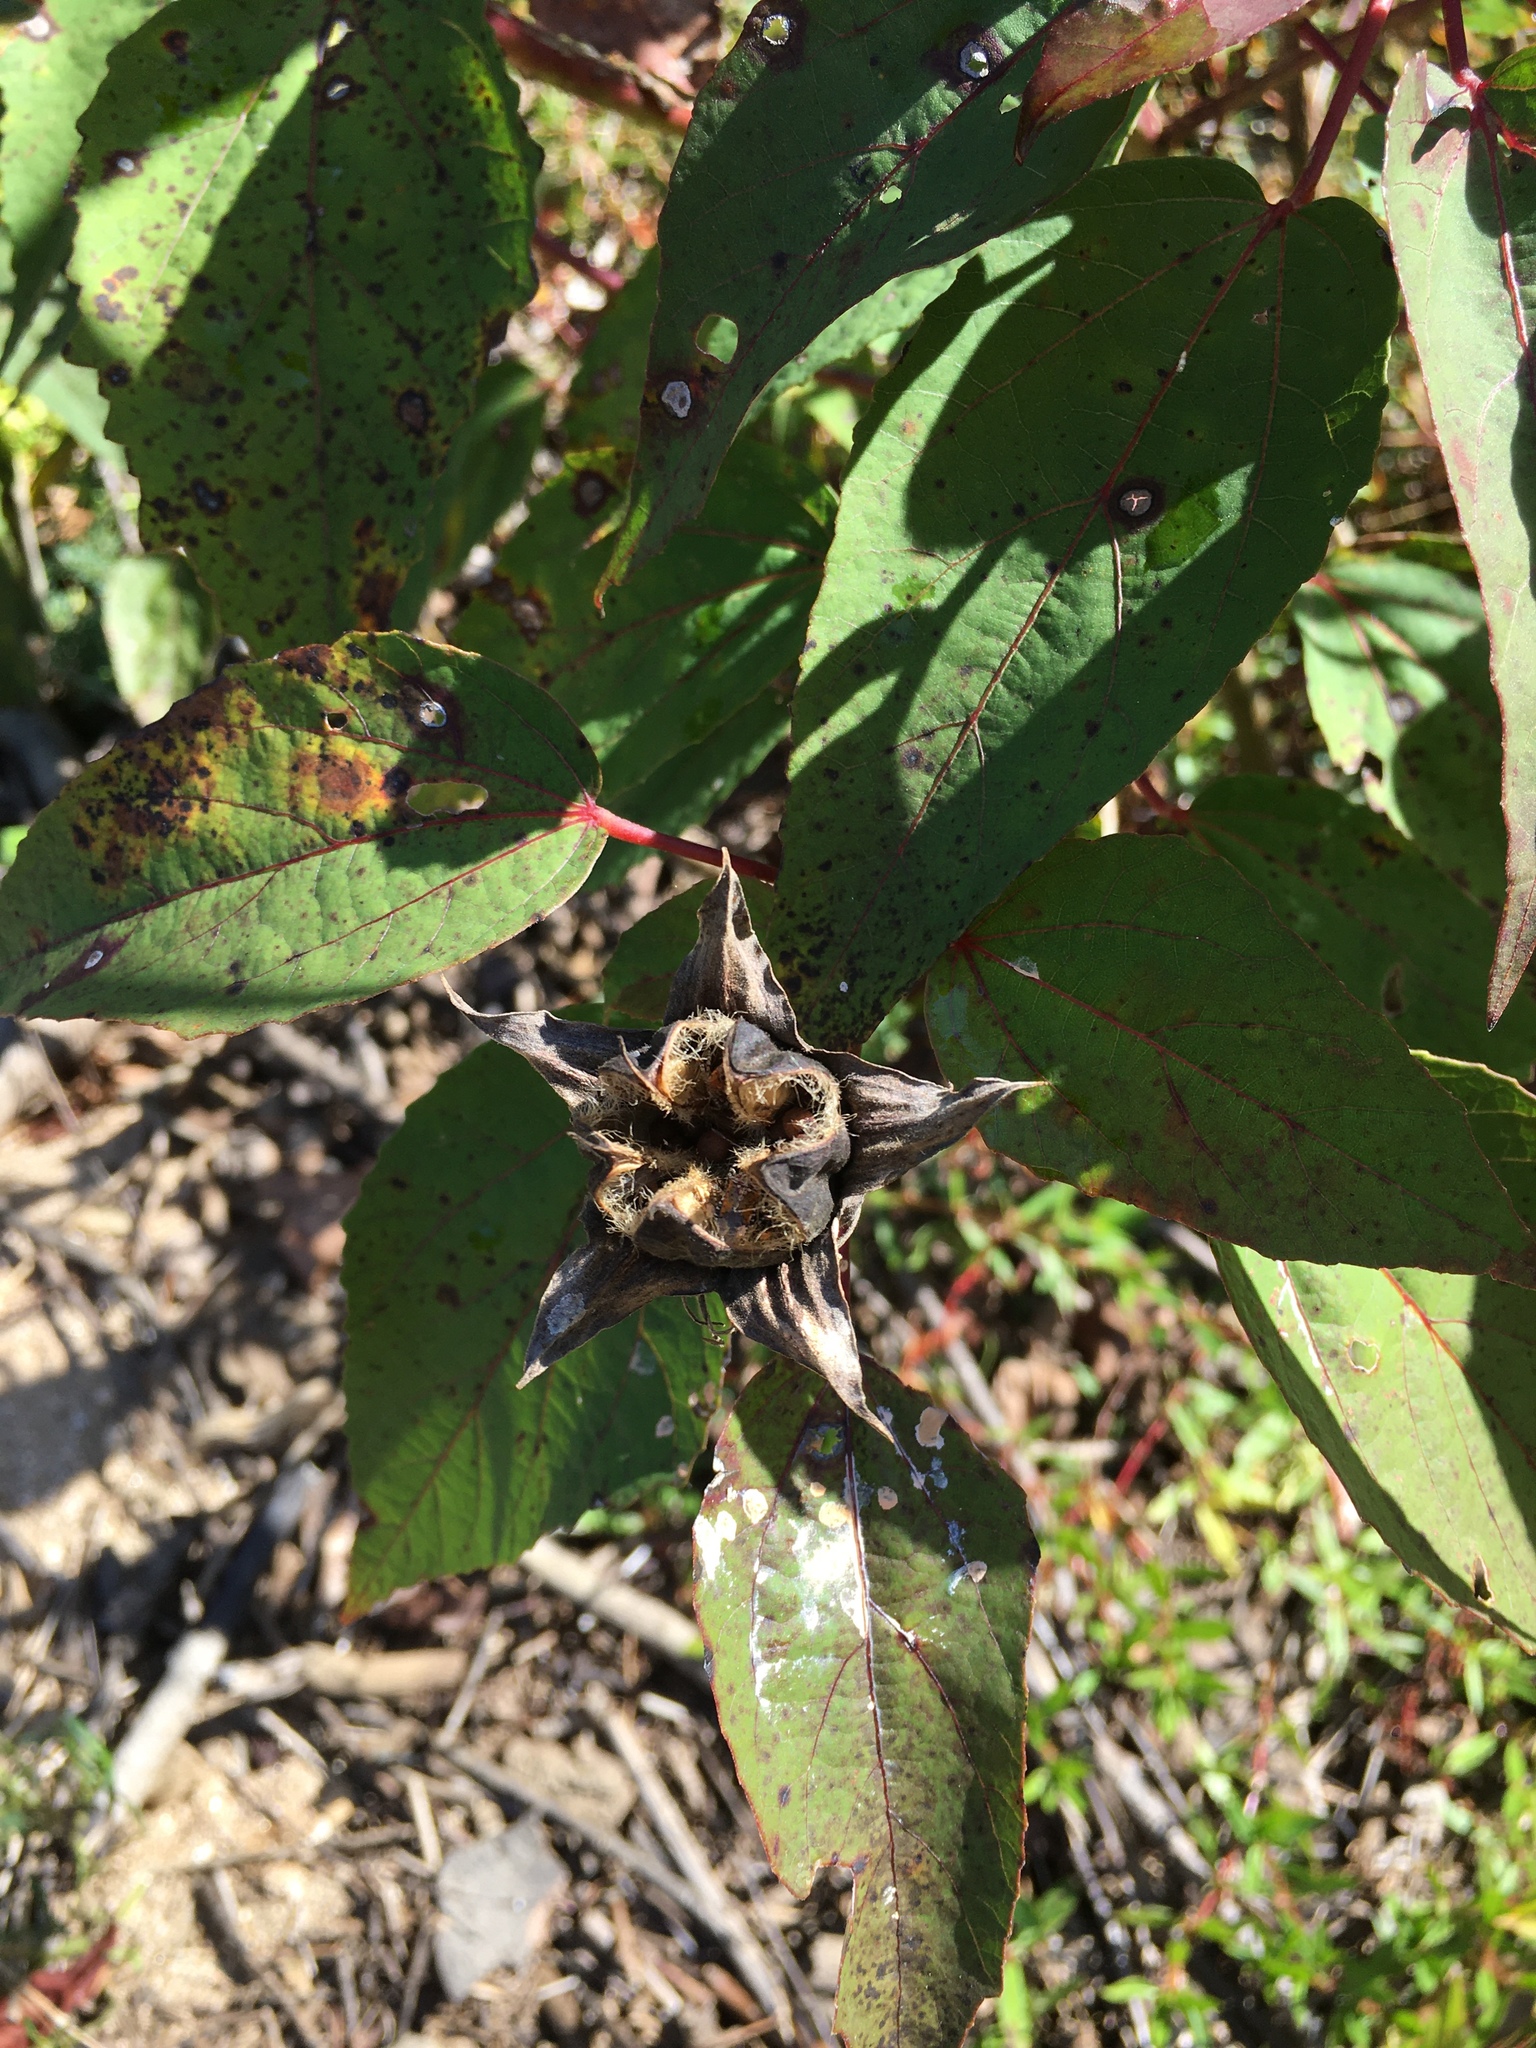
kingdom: Plantae
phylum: Tracheophyta
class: Magnoliopsida
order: Malvales
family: Malvaceae
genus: Hibiscus
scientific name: Hibiscus moscheutos
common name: Common rose-mallow
